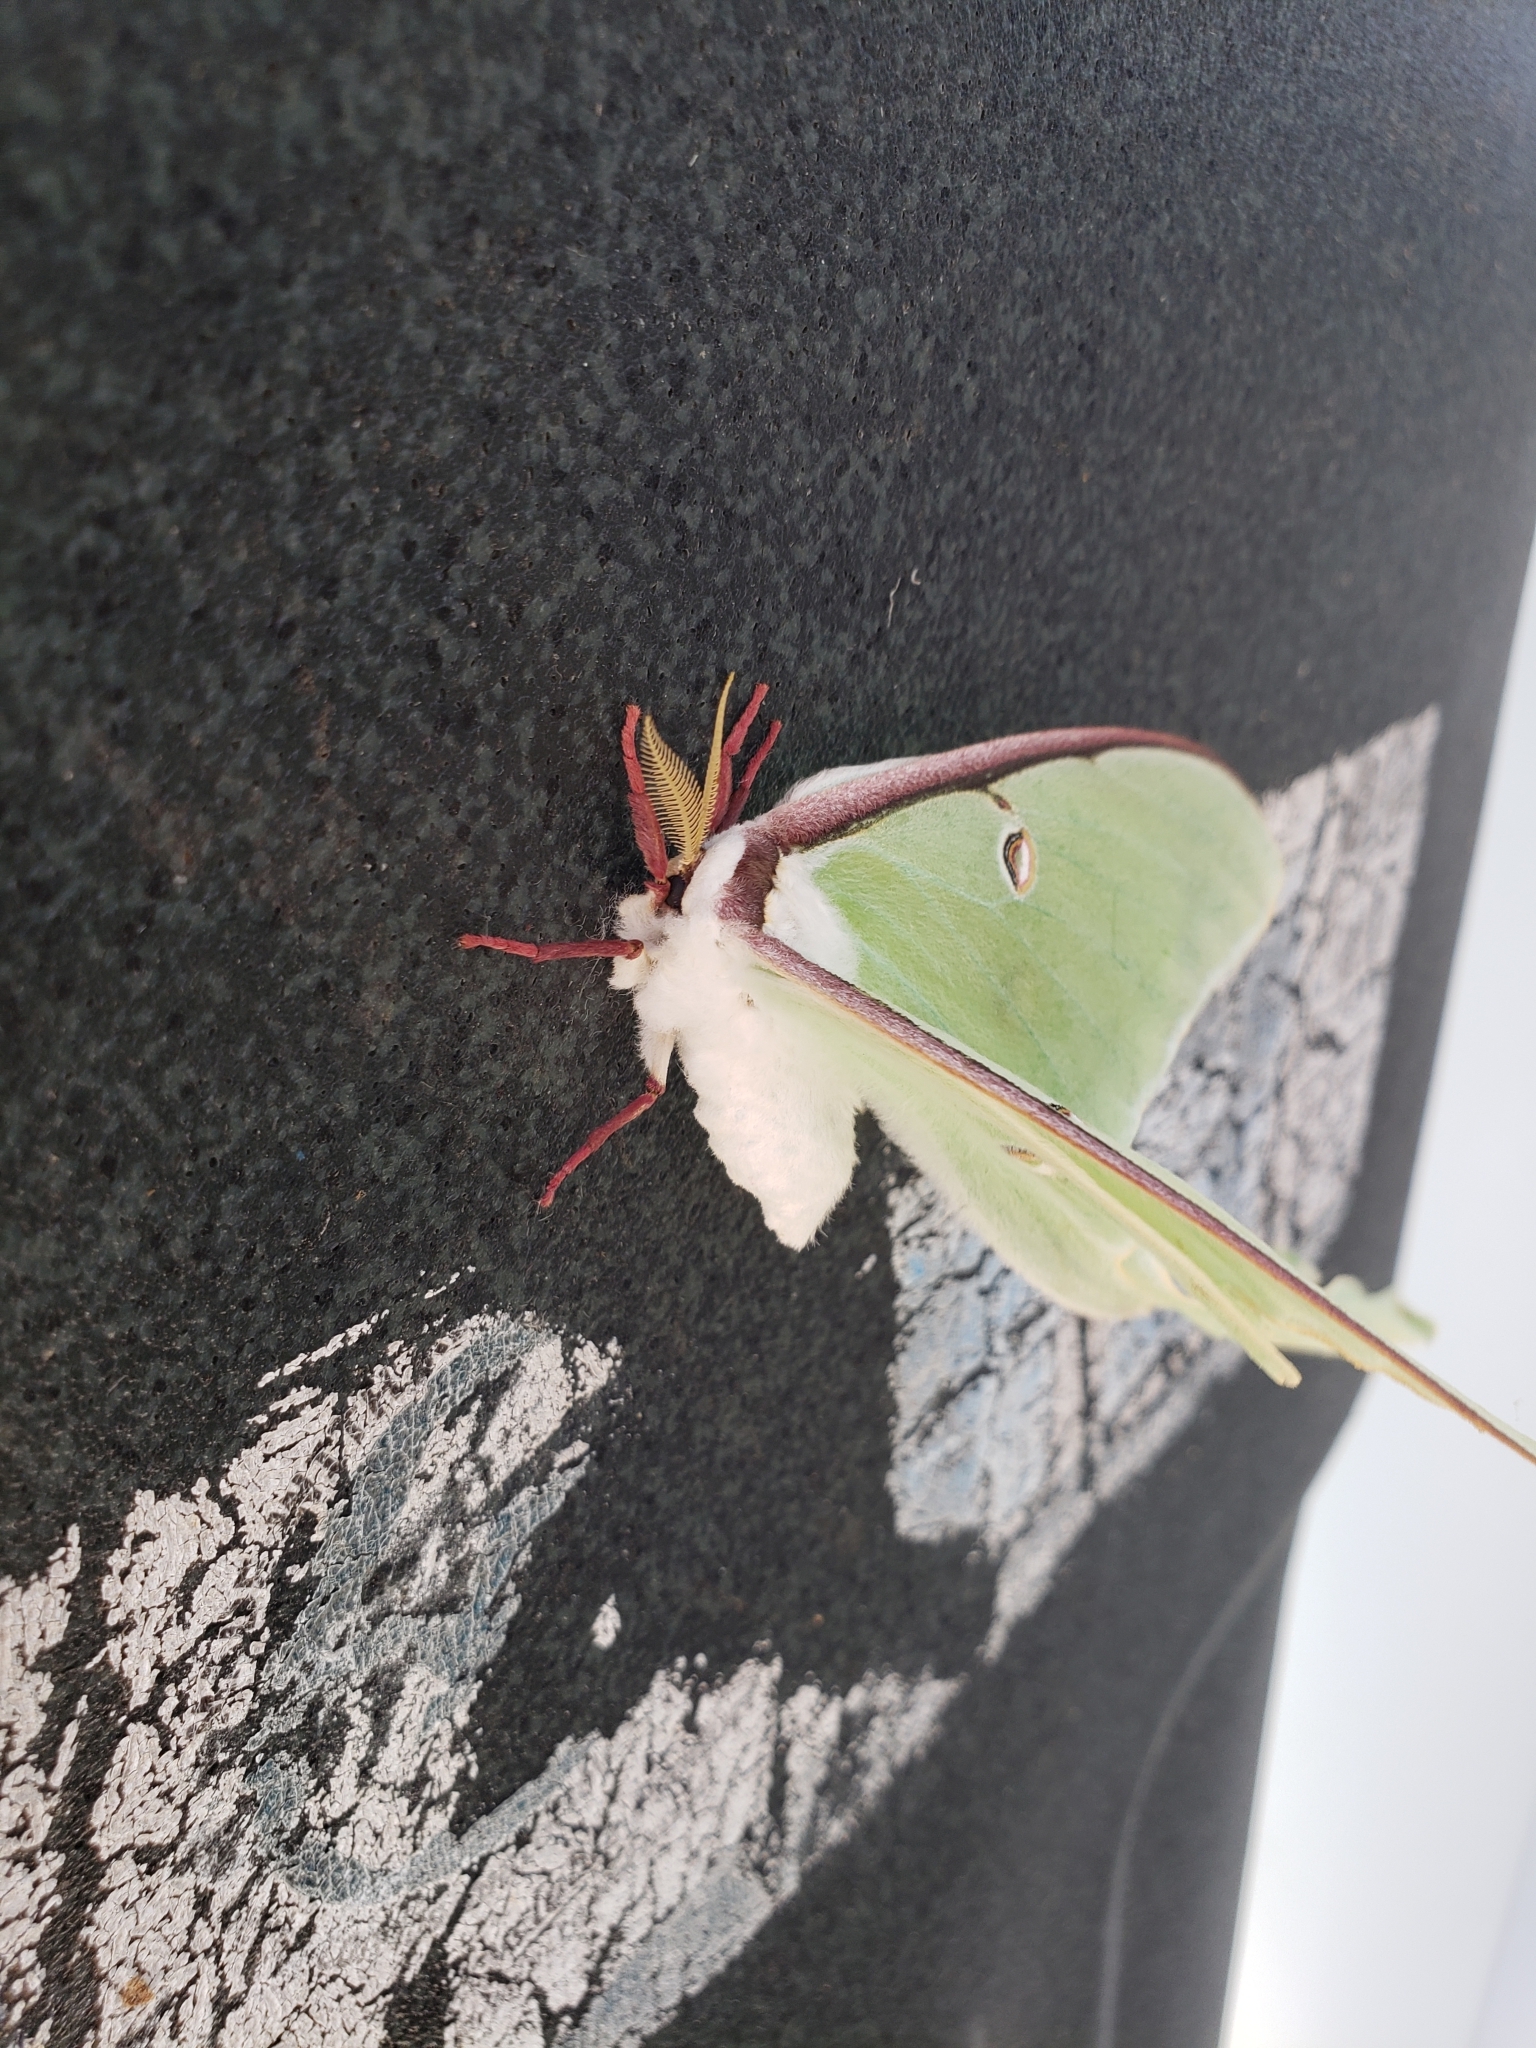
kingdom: Animalia
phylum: Arthropoda
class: Insecta
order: Lepidoptera
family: Saturniidae
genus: Actias
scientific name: Actias luna
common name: Luna moth
